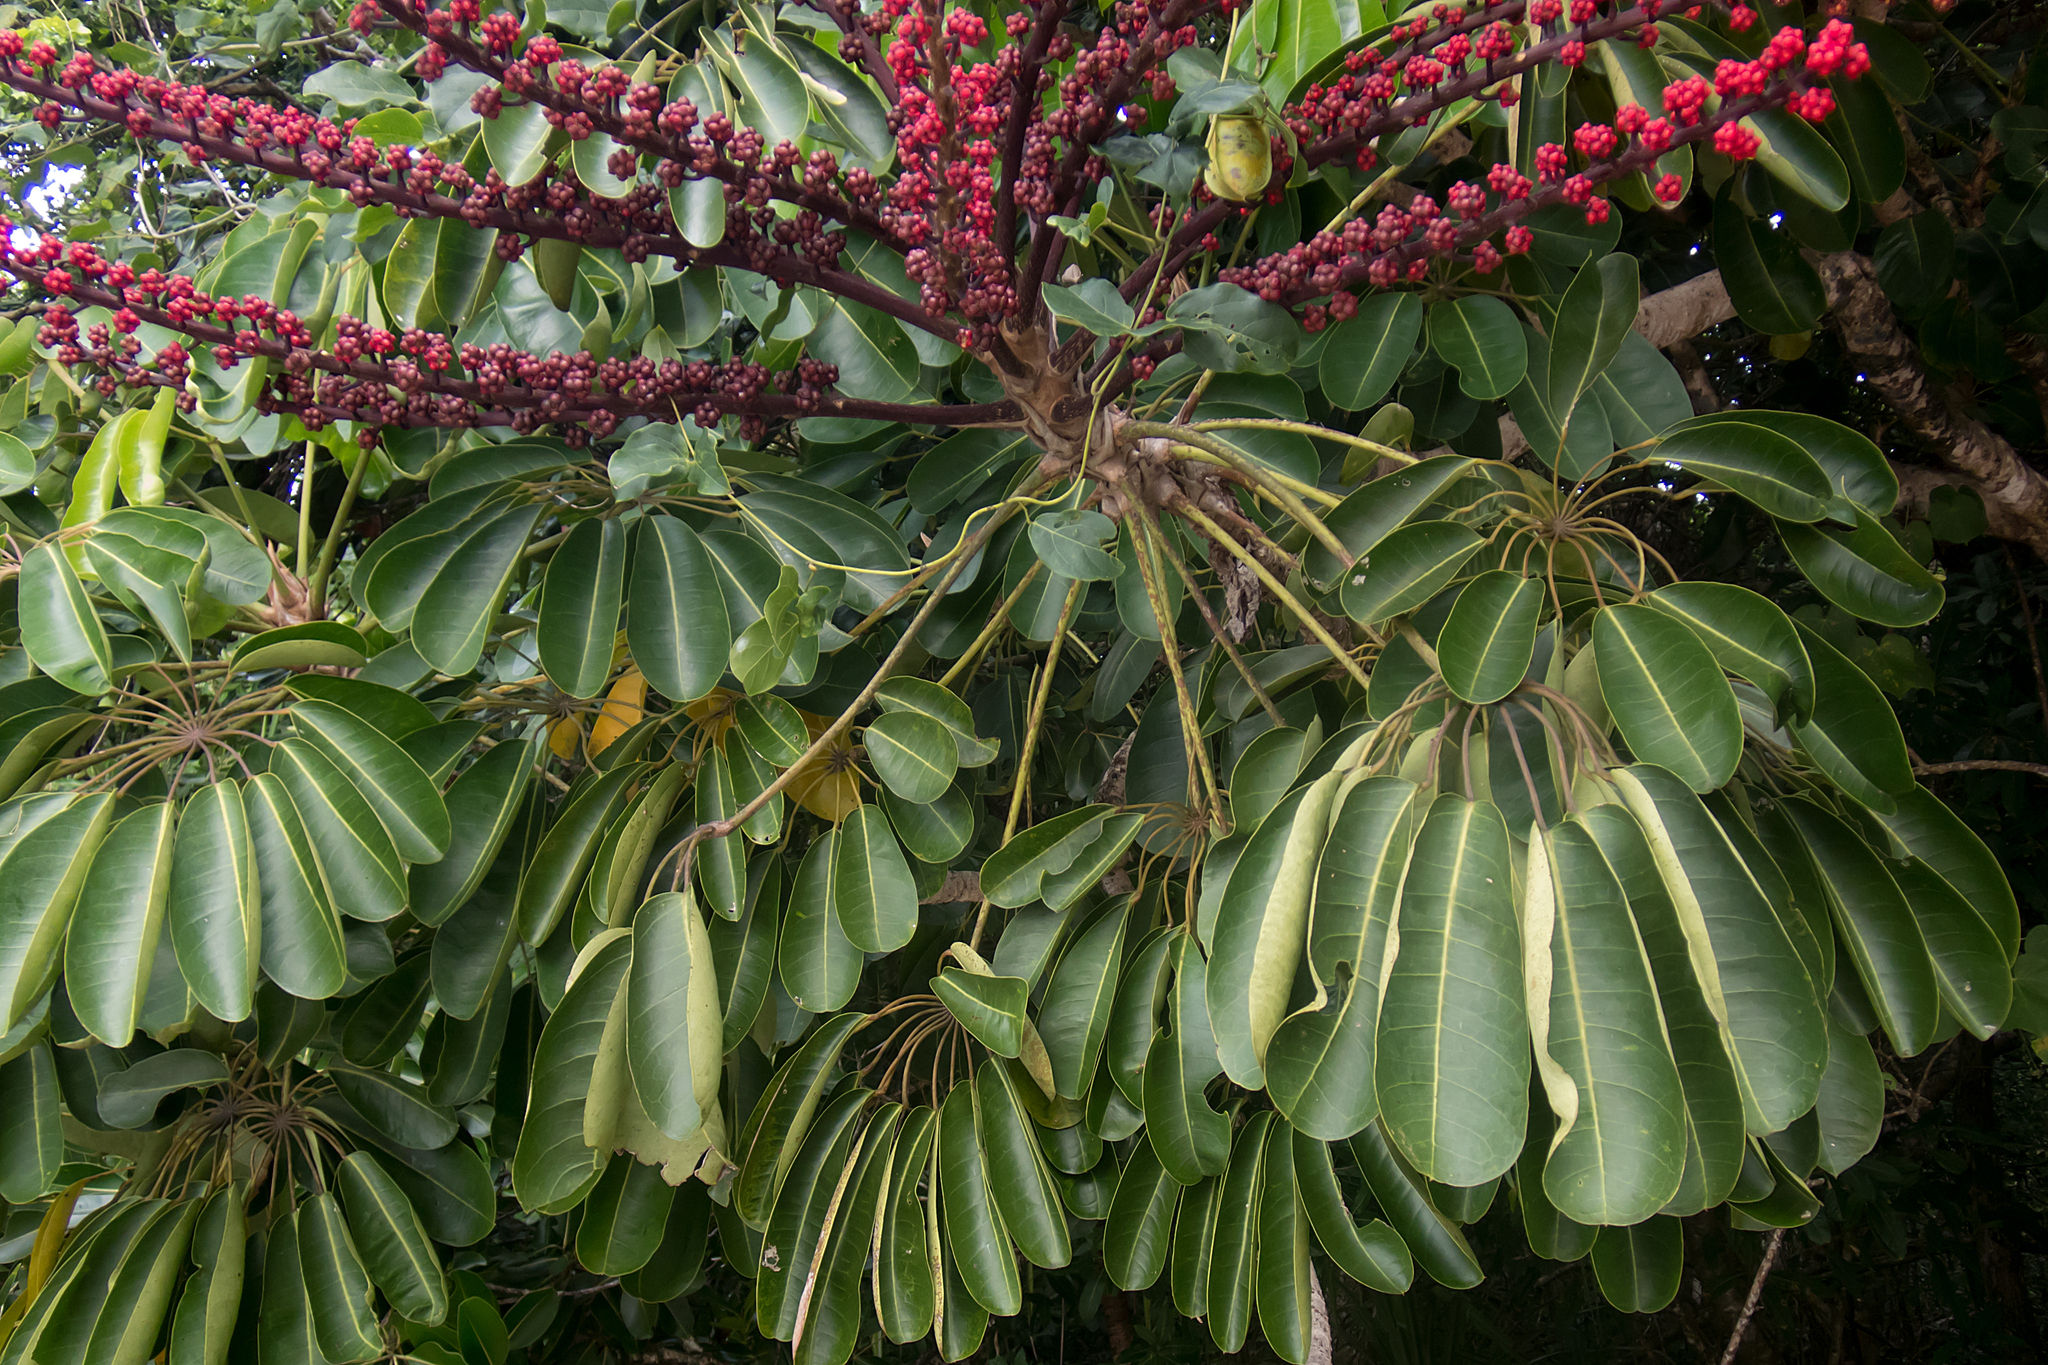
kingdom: Plantae
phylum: Tracheophyta
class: Magnoliopsida
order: Apiales
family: Araliaceae
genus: Heptapleurum
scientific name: Heptapleurum actinophyllum
